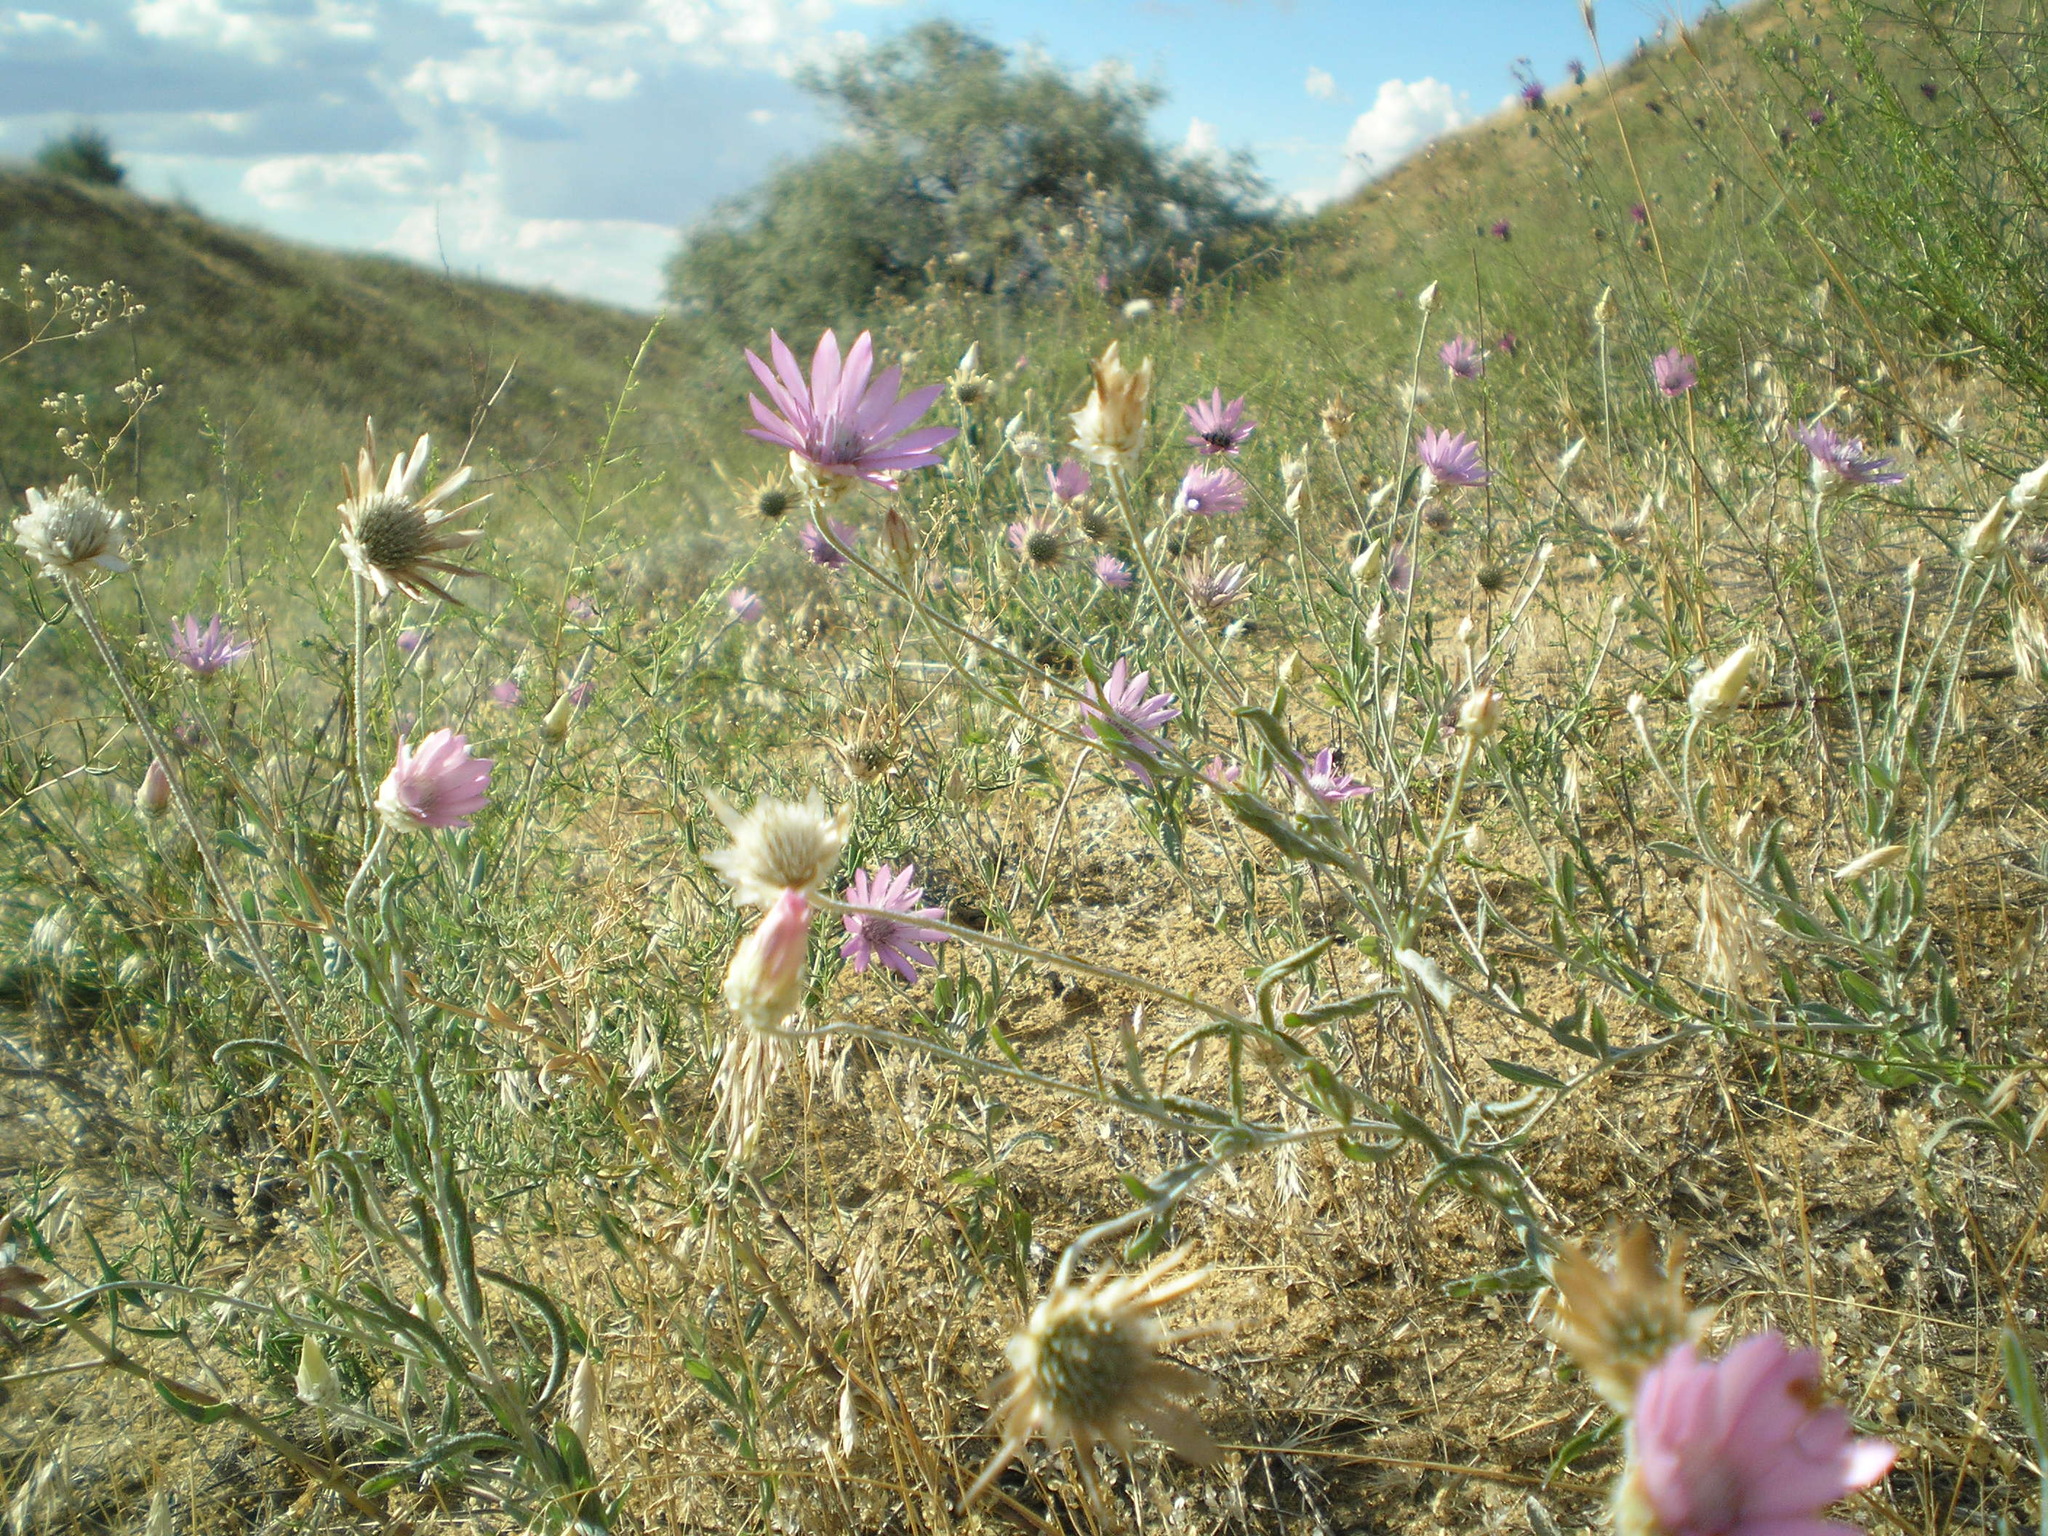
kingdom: Plantae
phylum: Tracheophyta
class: Magnoliopsida
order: Asterales
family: Asteraceae
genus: Xeranthemum
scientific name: Xeranthemum annuum
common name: Immortelle
